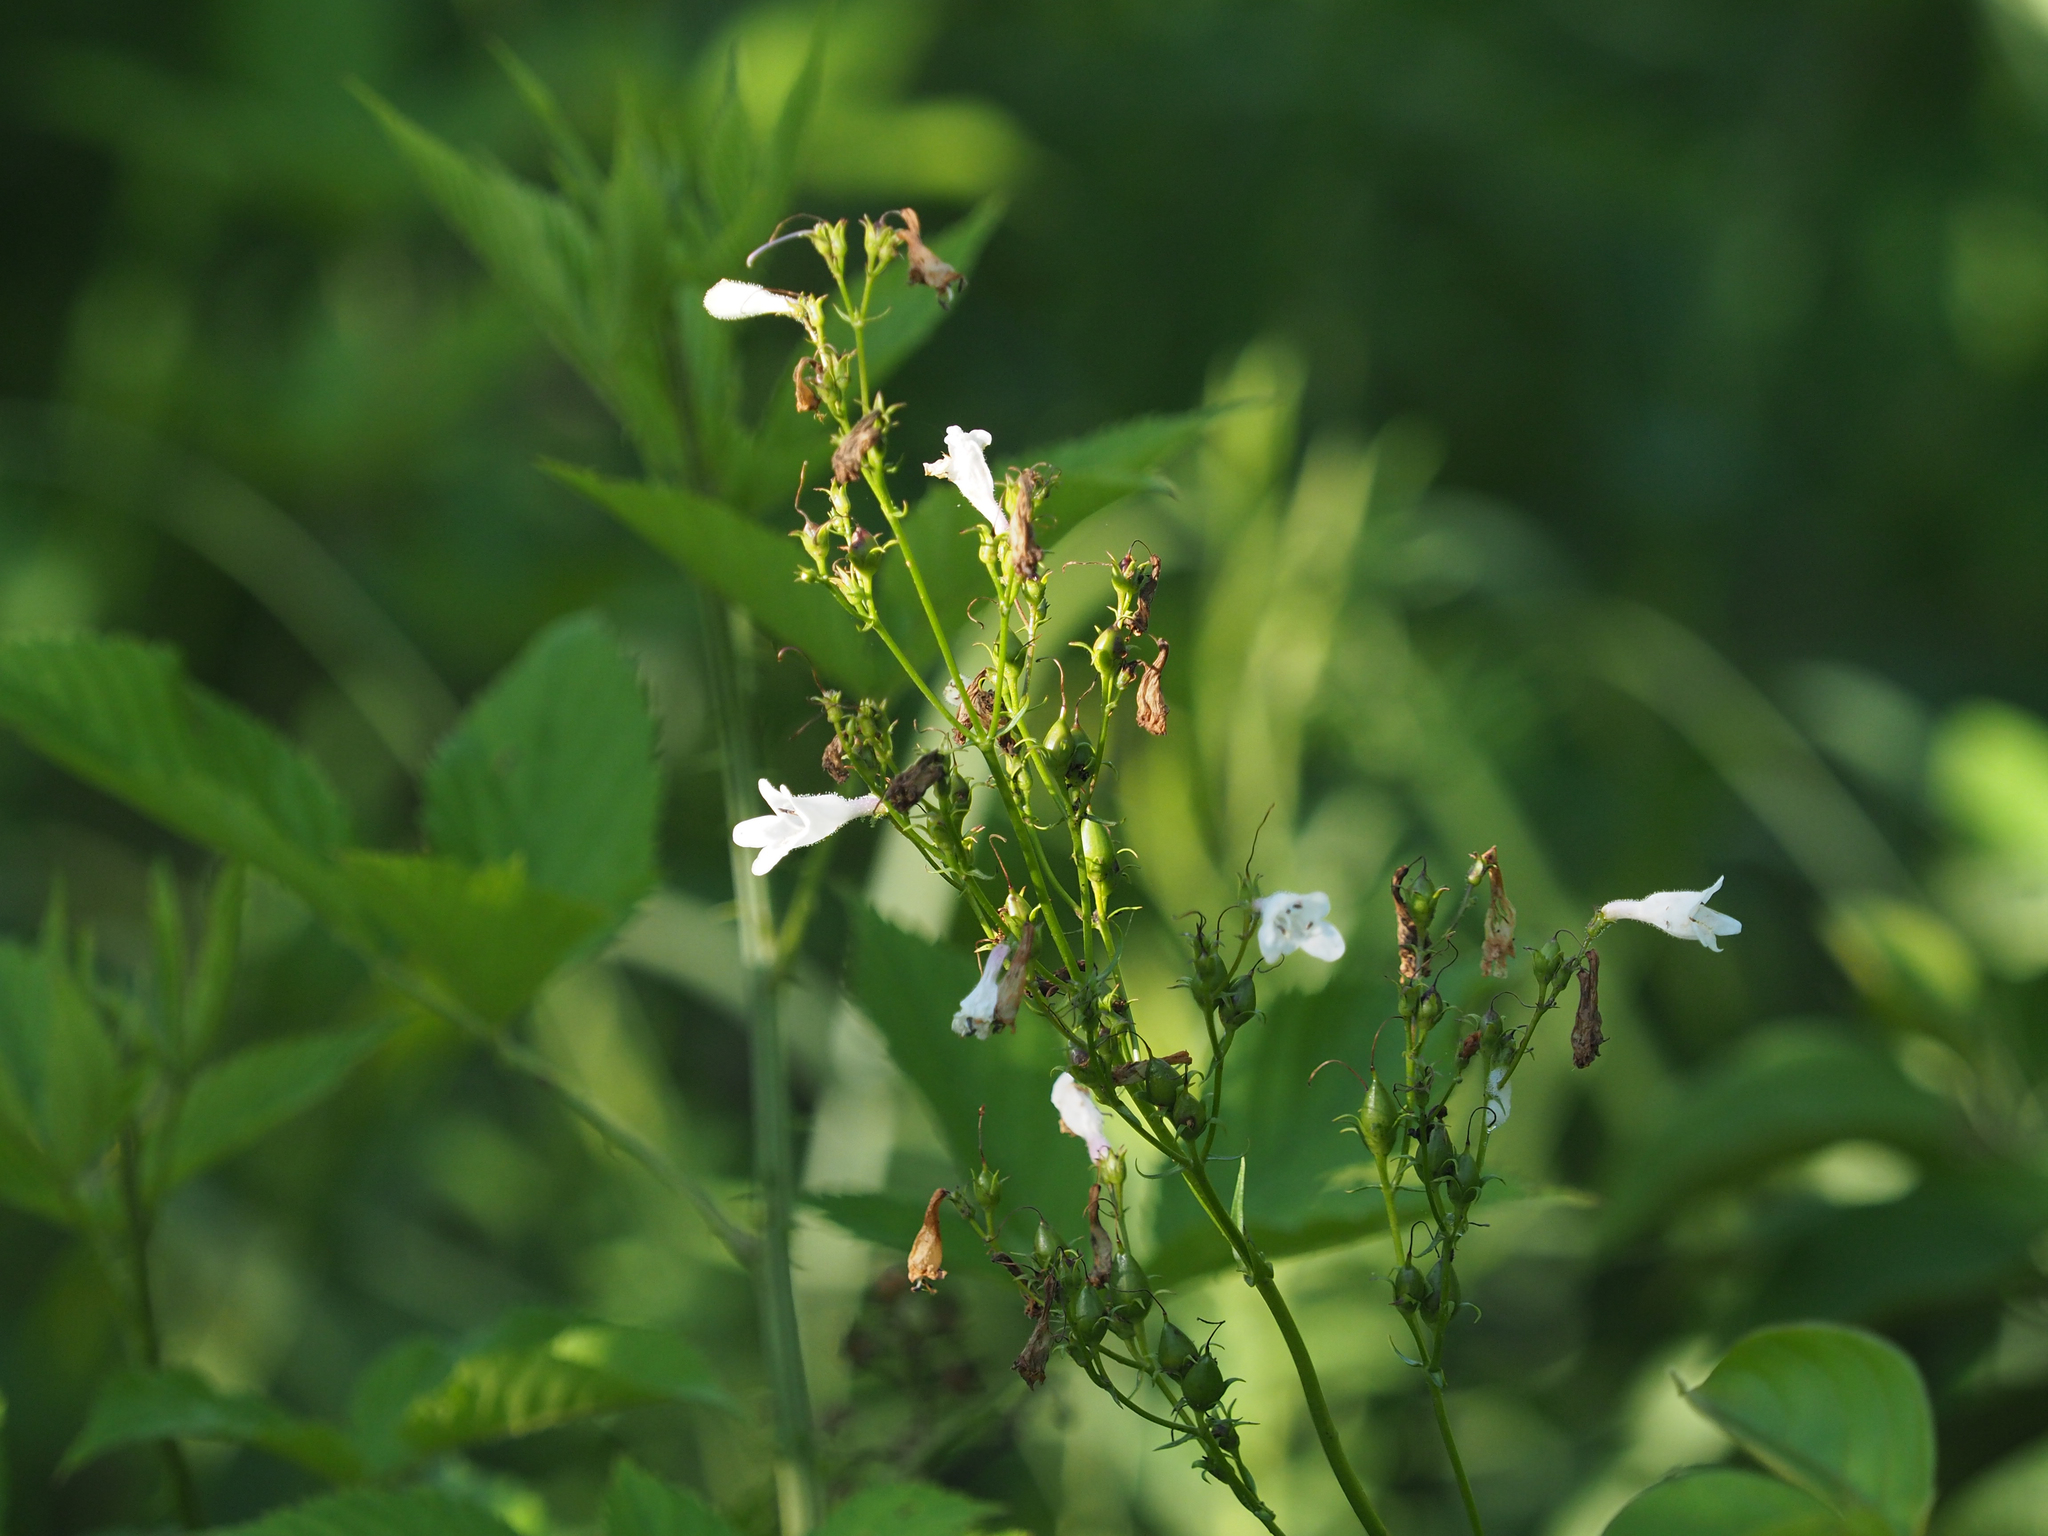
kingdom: Plantae
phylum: Tracheophyta
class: Magnoliopsida
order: Lamiales
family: Plantaginaceae
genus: Penstemon
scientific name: Penstemon digitalis
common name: Foxglove beardtongue
